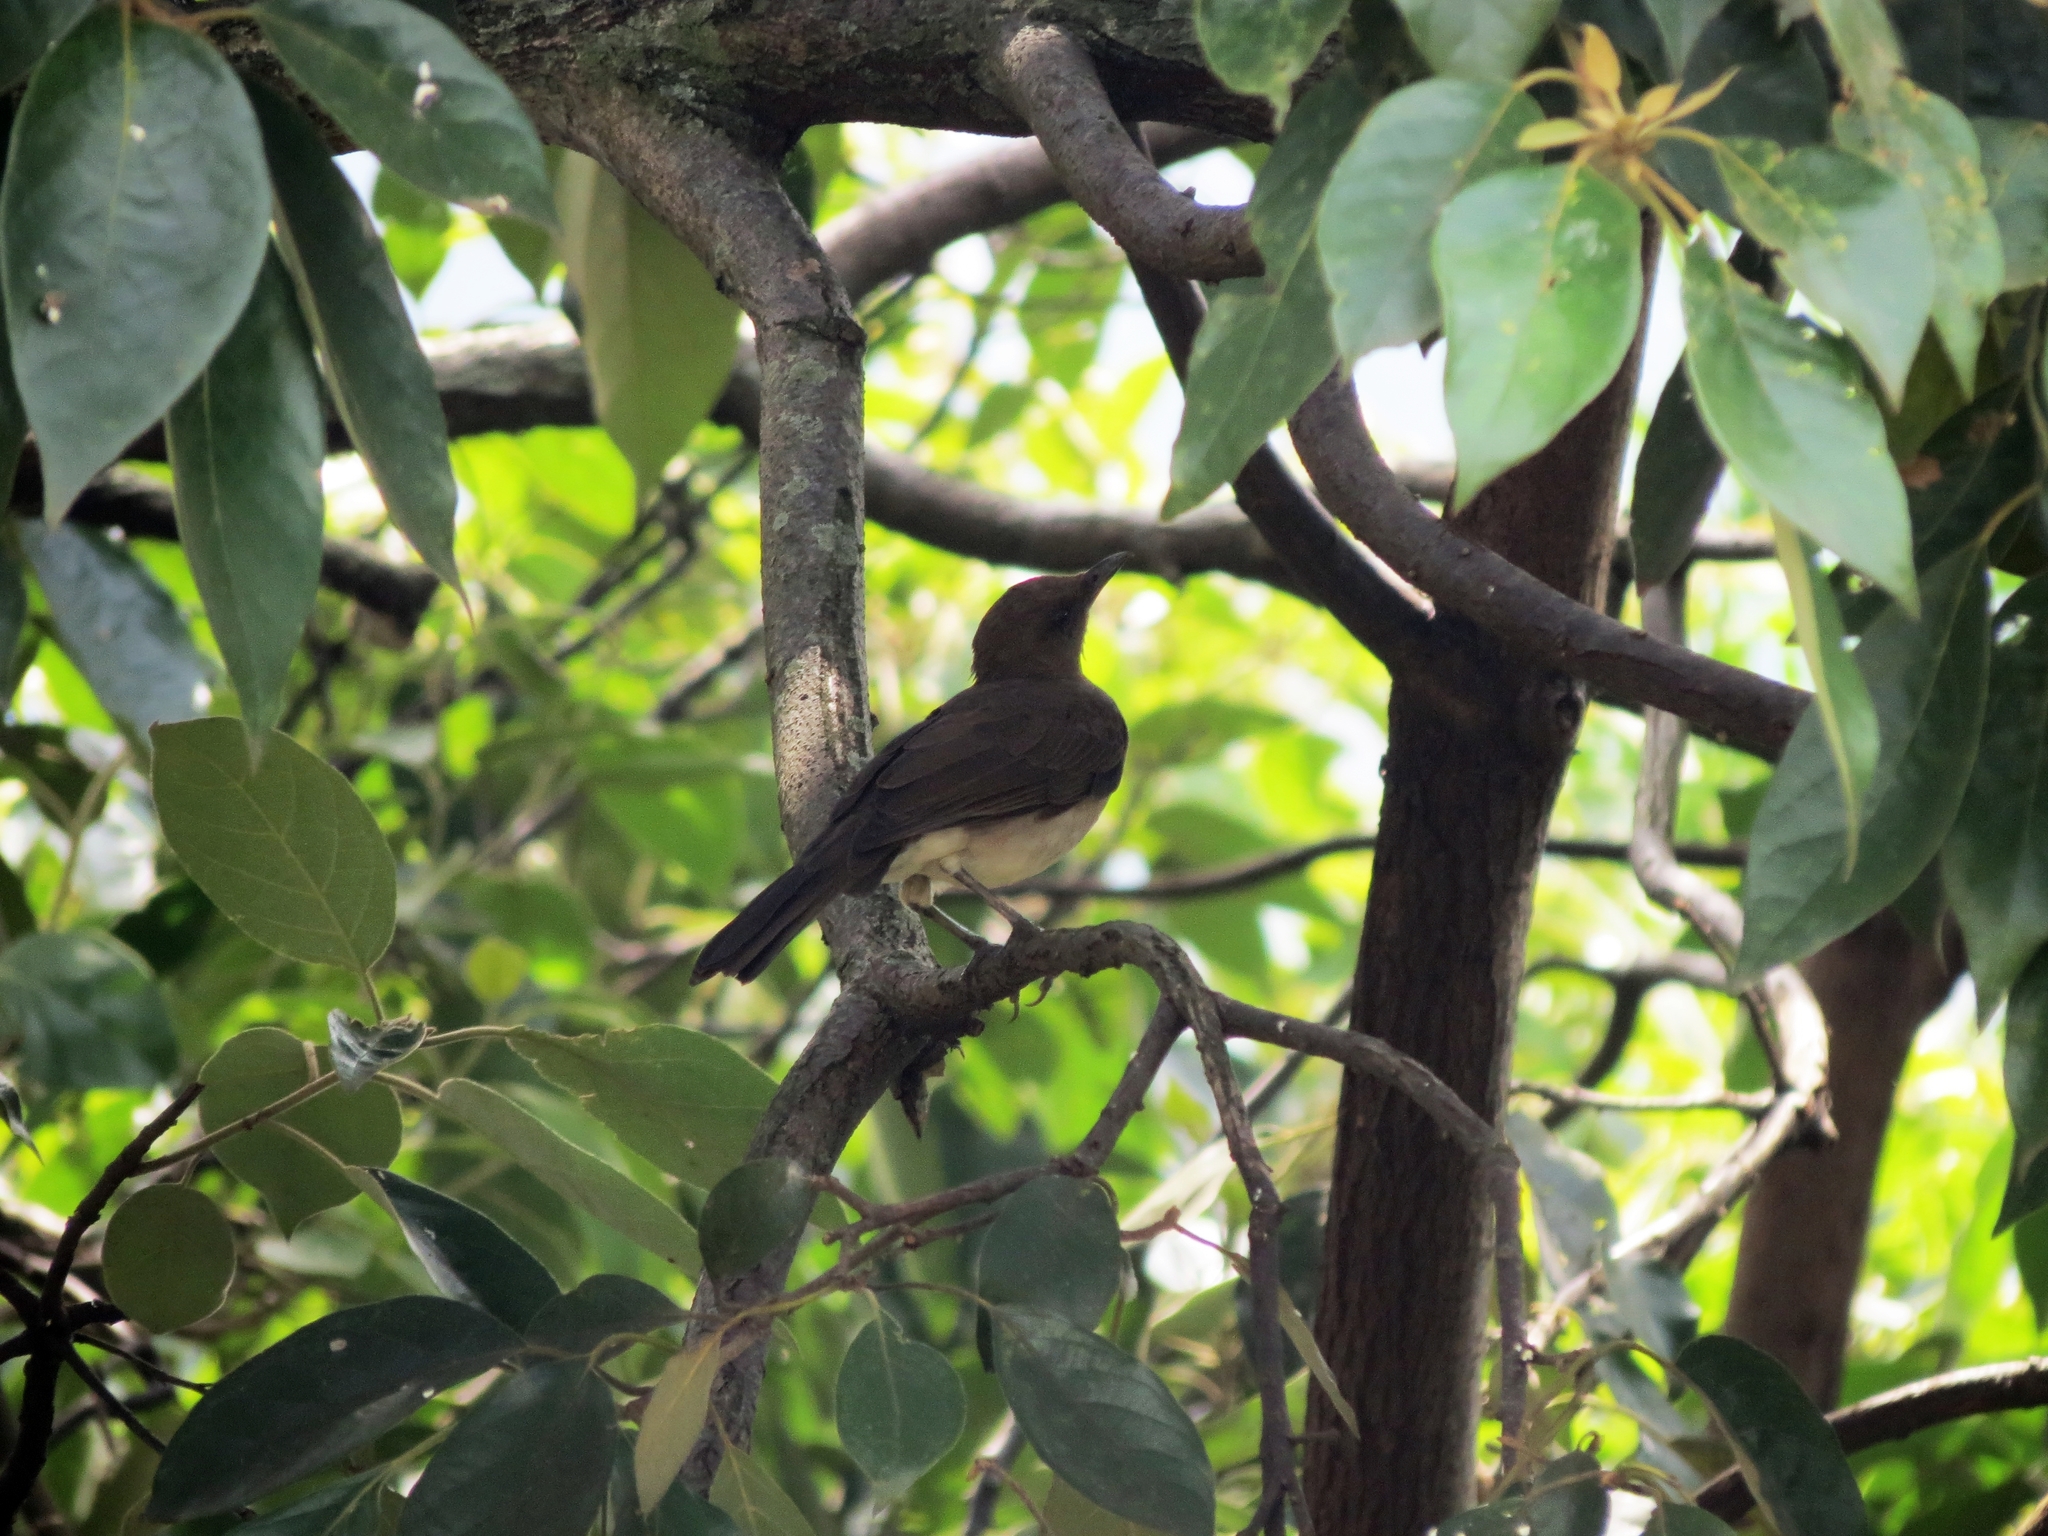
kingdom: Animalia
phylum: Chordata
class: Aves
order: Passeriformes
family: Turdidae
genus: Turdus
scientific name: Turdus ignobilis
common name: Black-billed thrush
